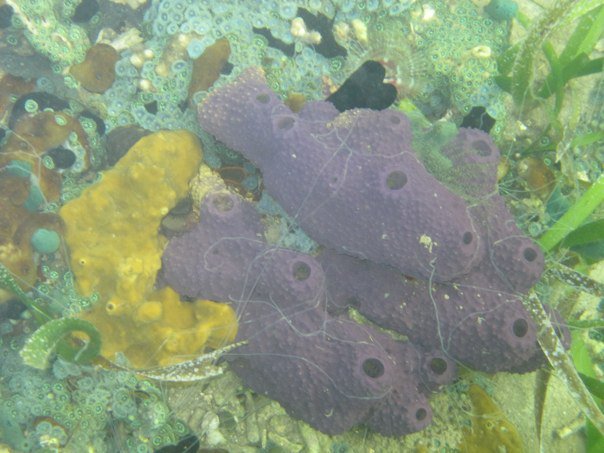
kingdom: Animalia
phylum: Porifera
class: Demospongiae
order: Verongiida
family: Aplysinidae
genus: Aiolochroia
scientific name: Aiolochroia crassa
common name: Branching tube sponge
